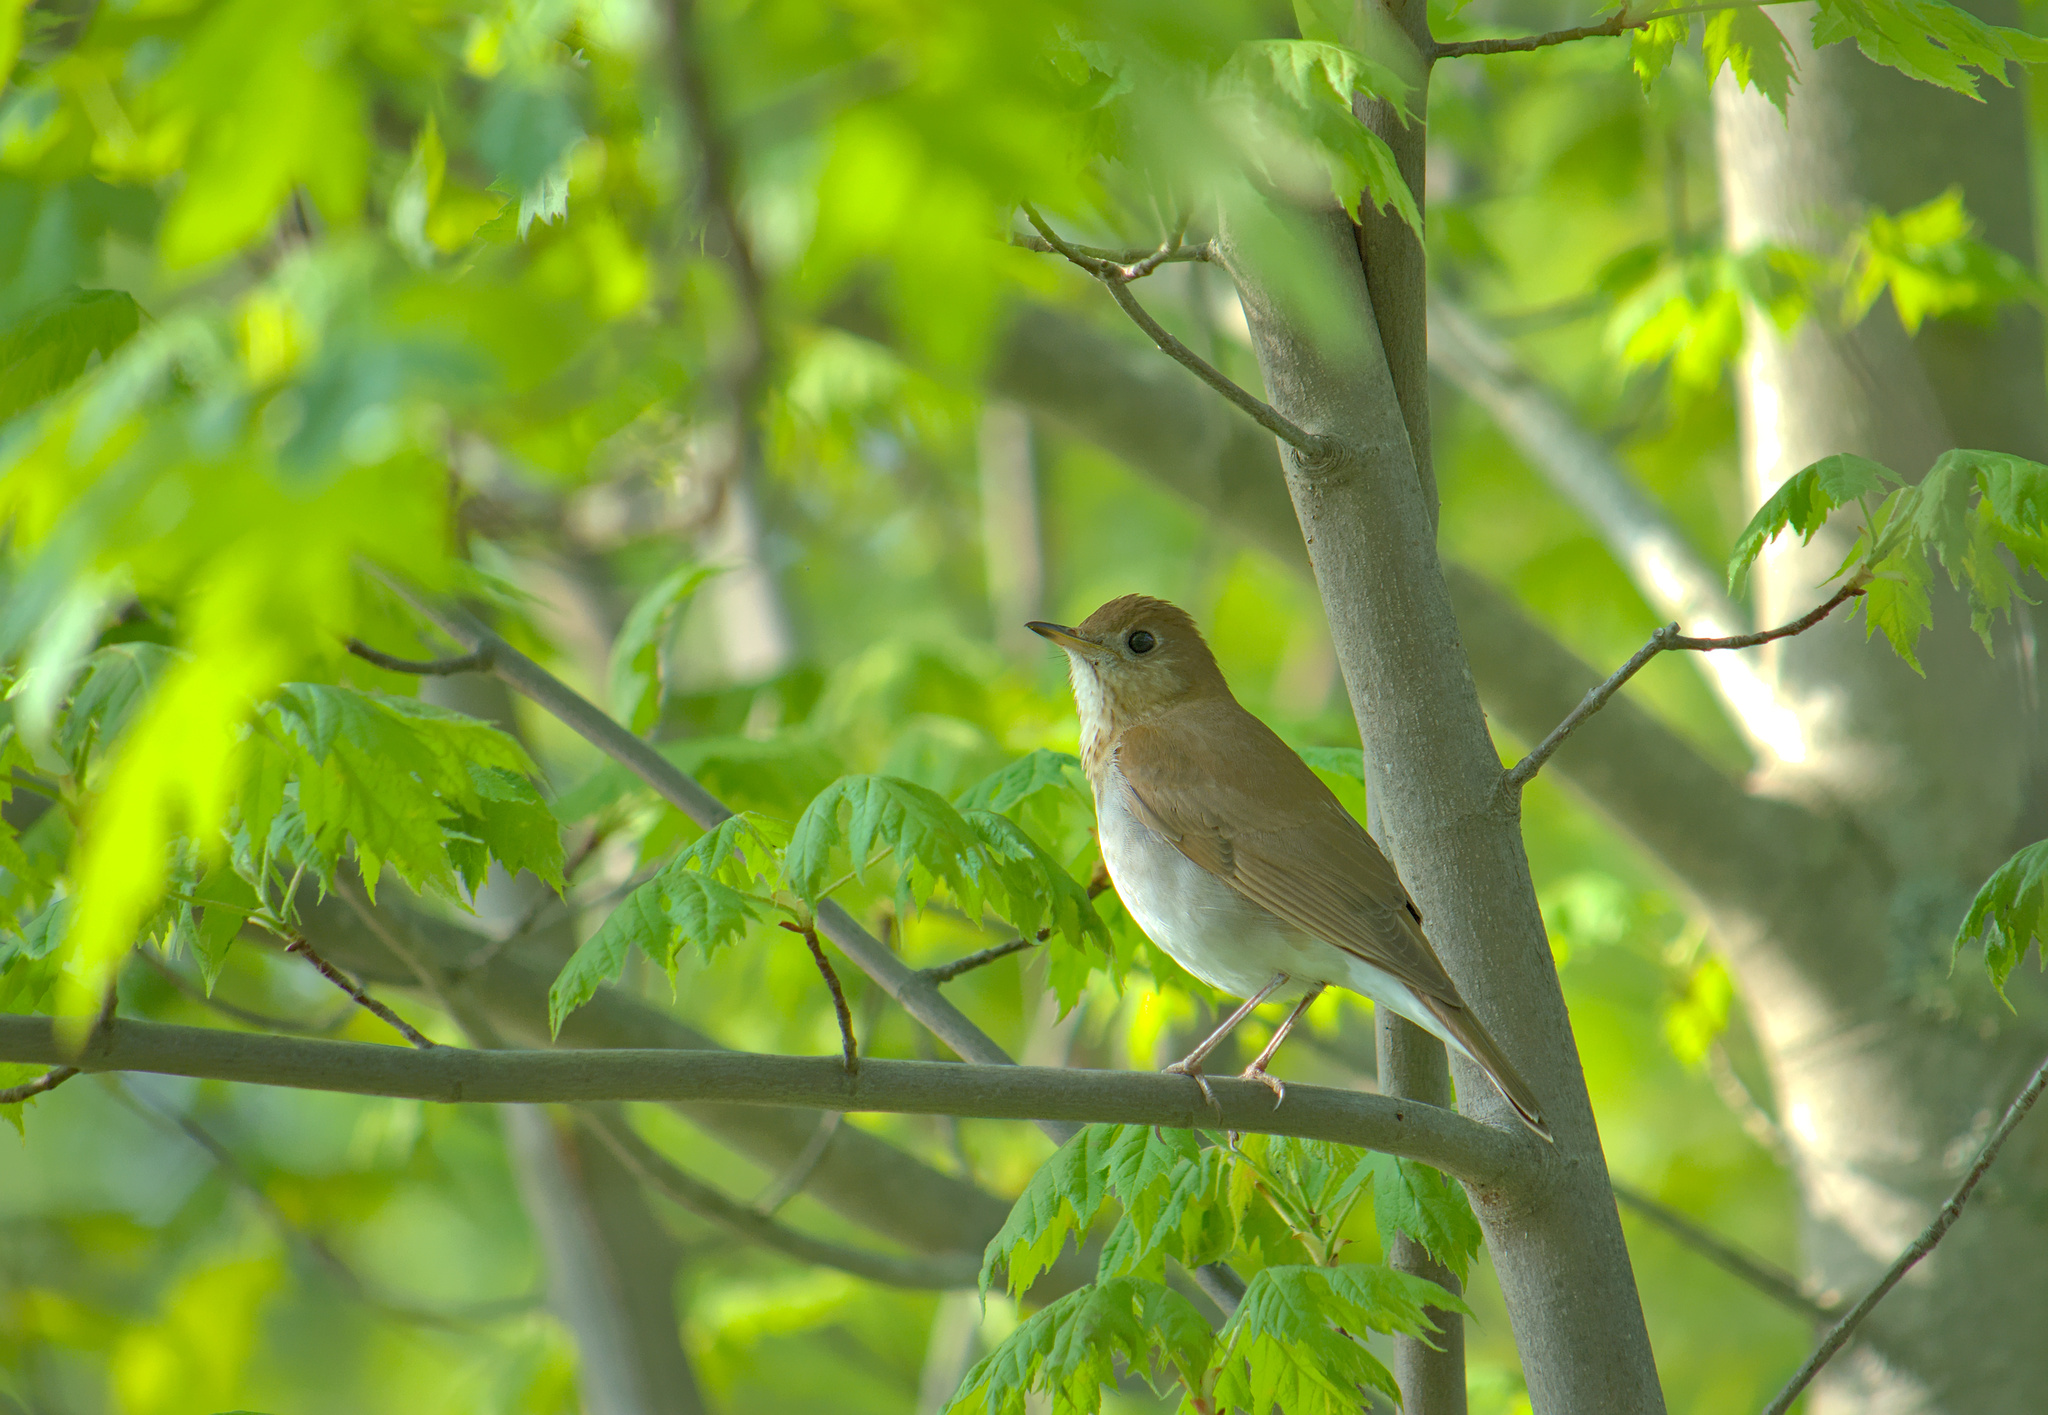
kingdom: Animalia
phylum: Chordata
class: Aves
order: Passeriformes
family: Turdidae
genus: Catharus
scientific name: Catharus fuscescens
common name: Veery
